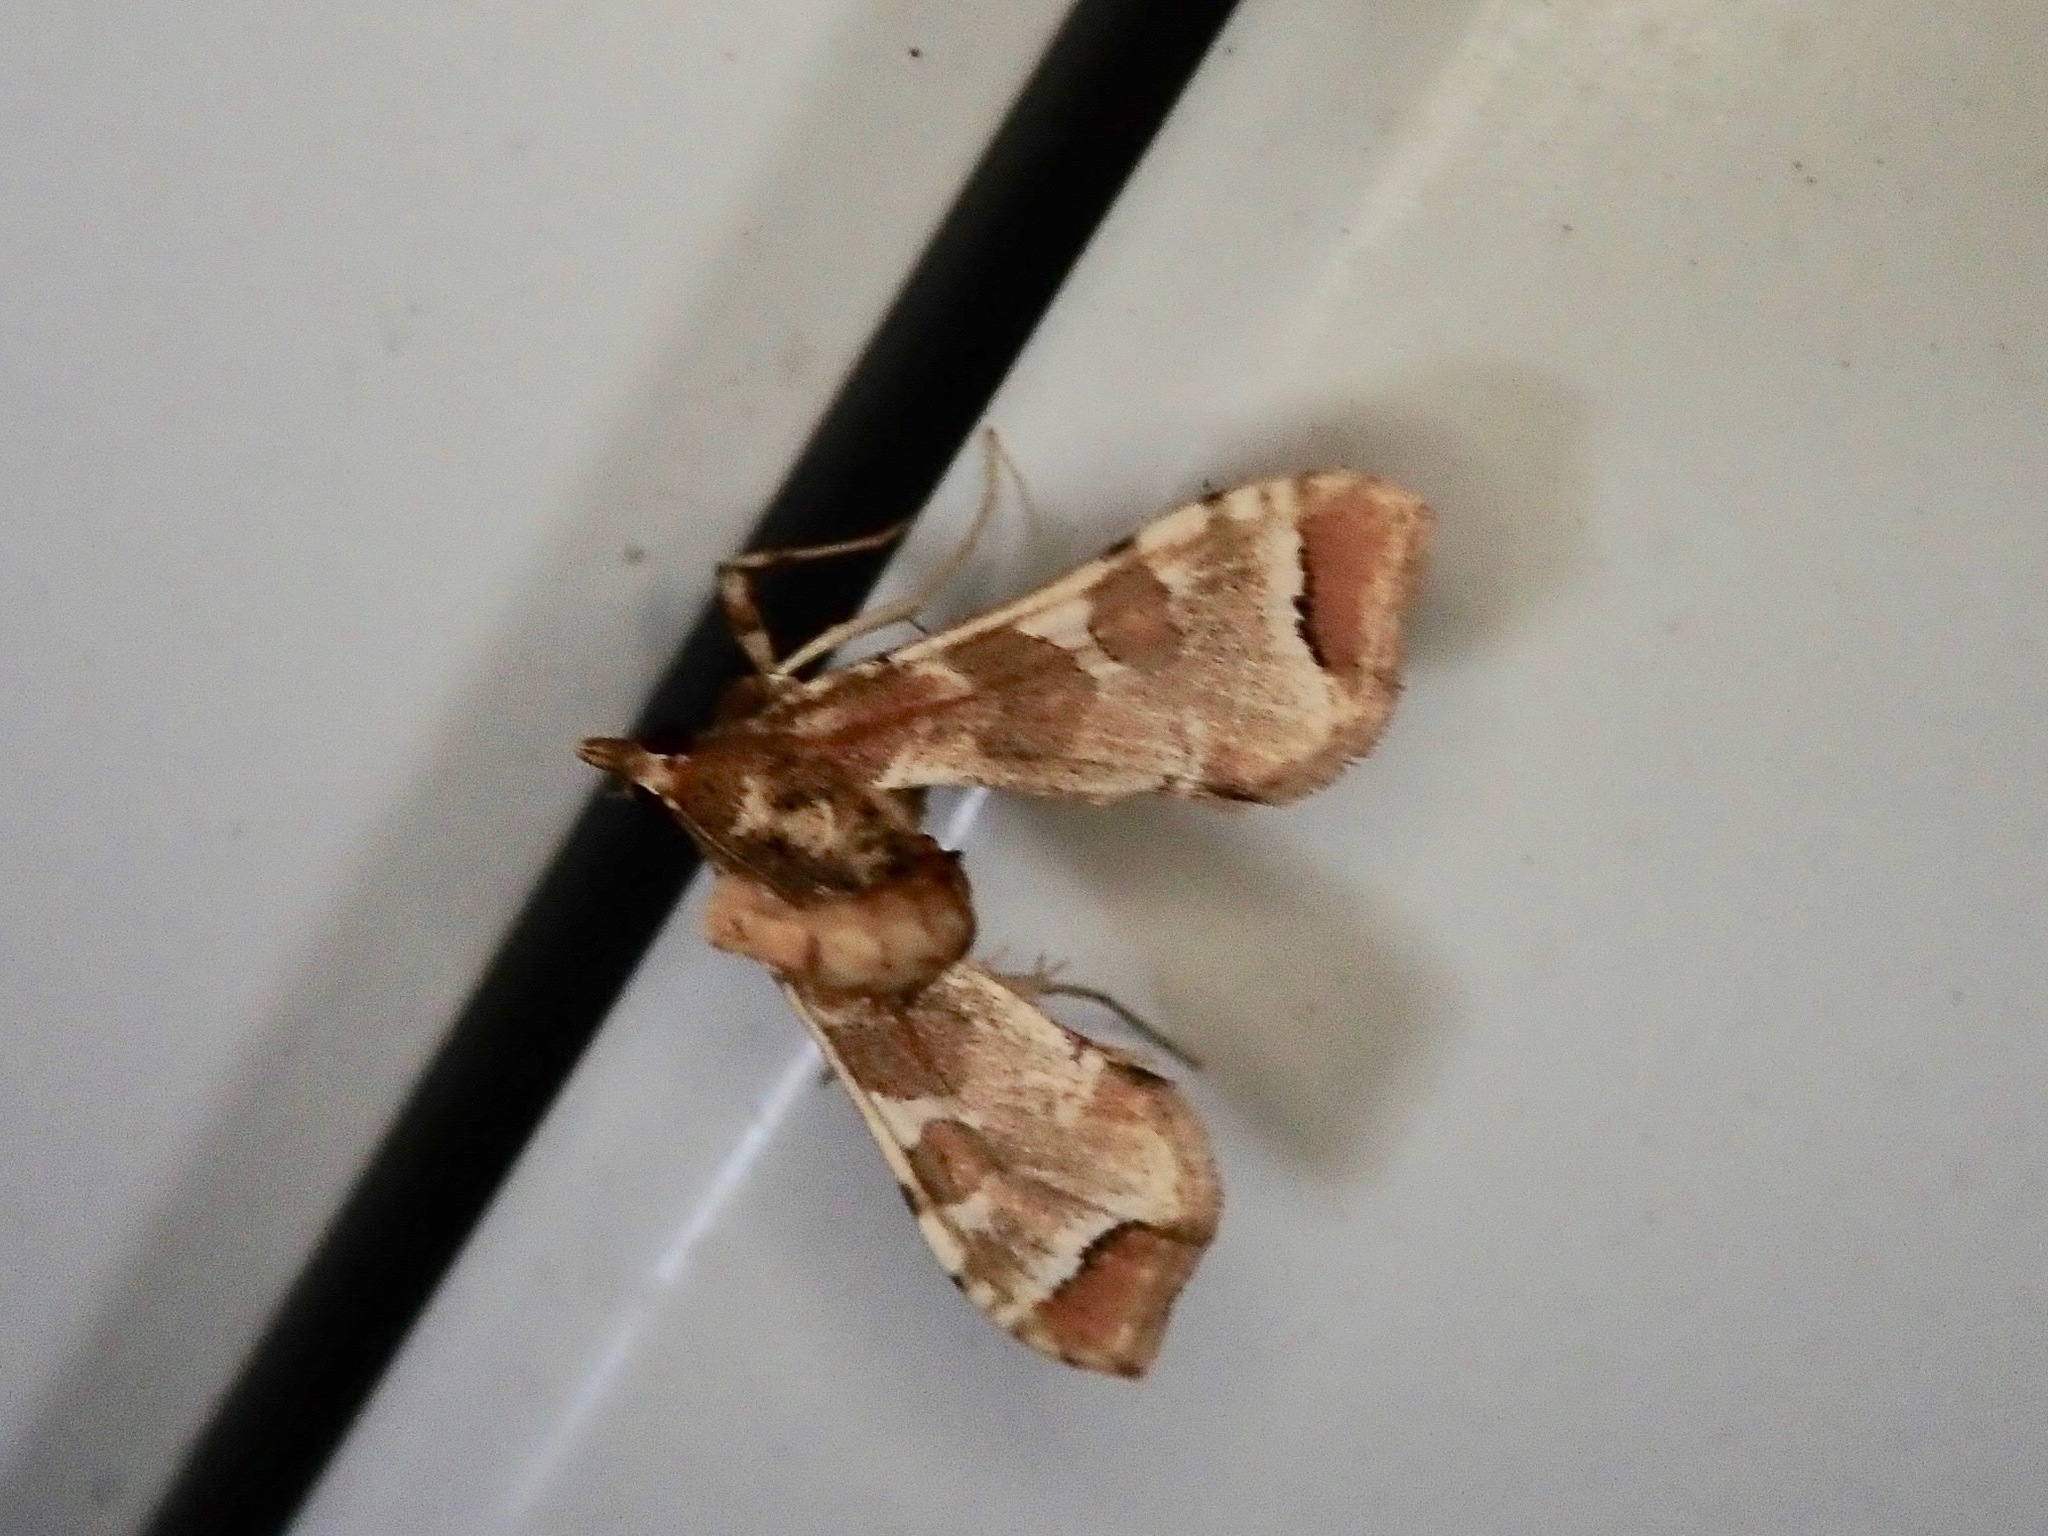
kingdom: Animalia
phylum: Arthropoda
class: Insecta
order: Lepidoptera
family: Crambidae
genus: Sceliodes
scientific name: Sceliodes cordalis
